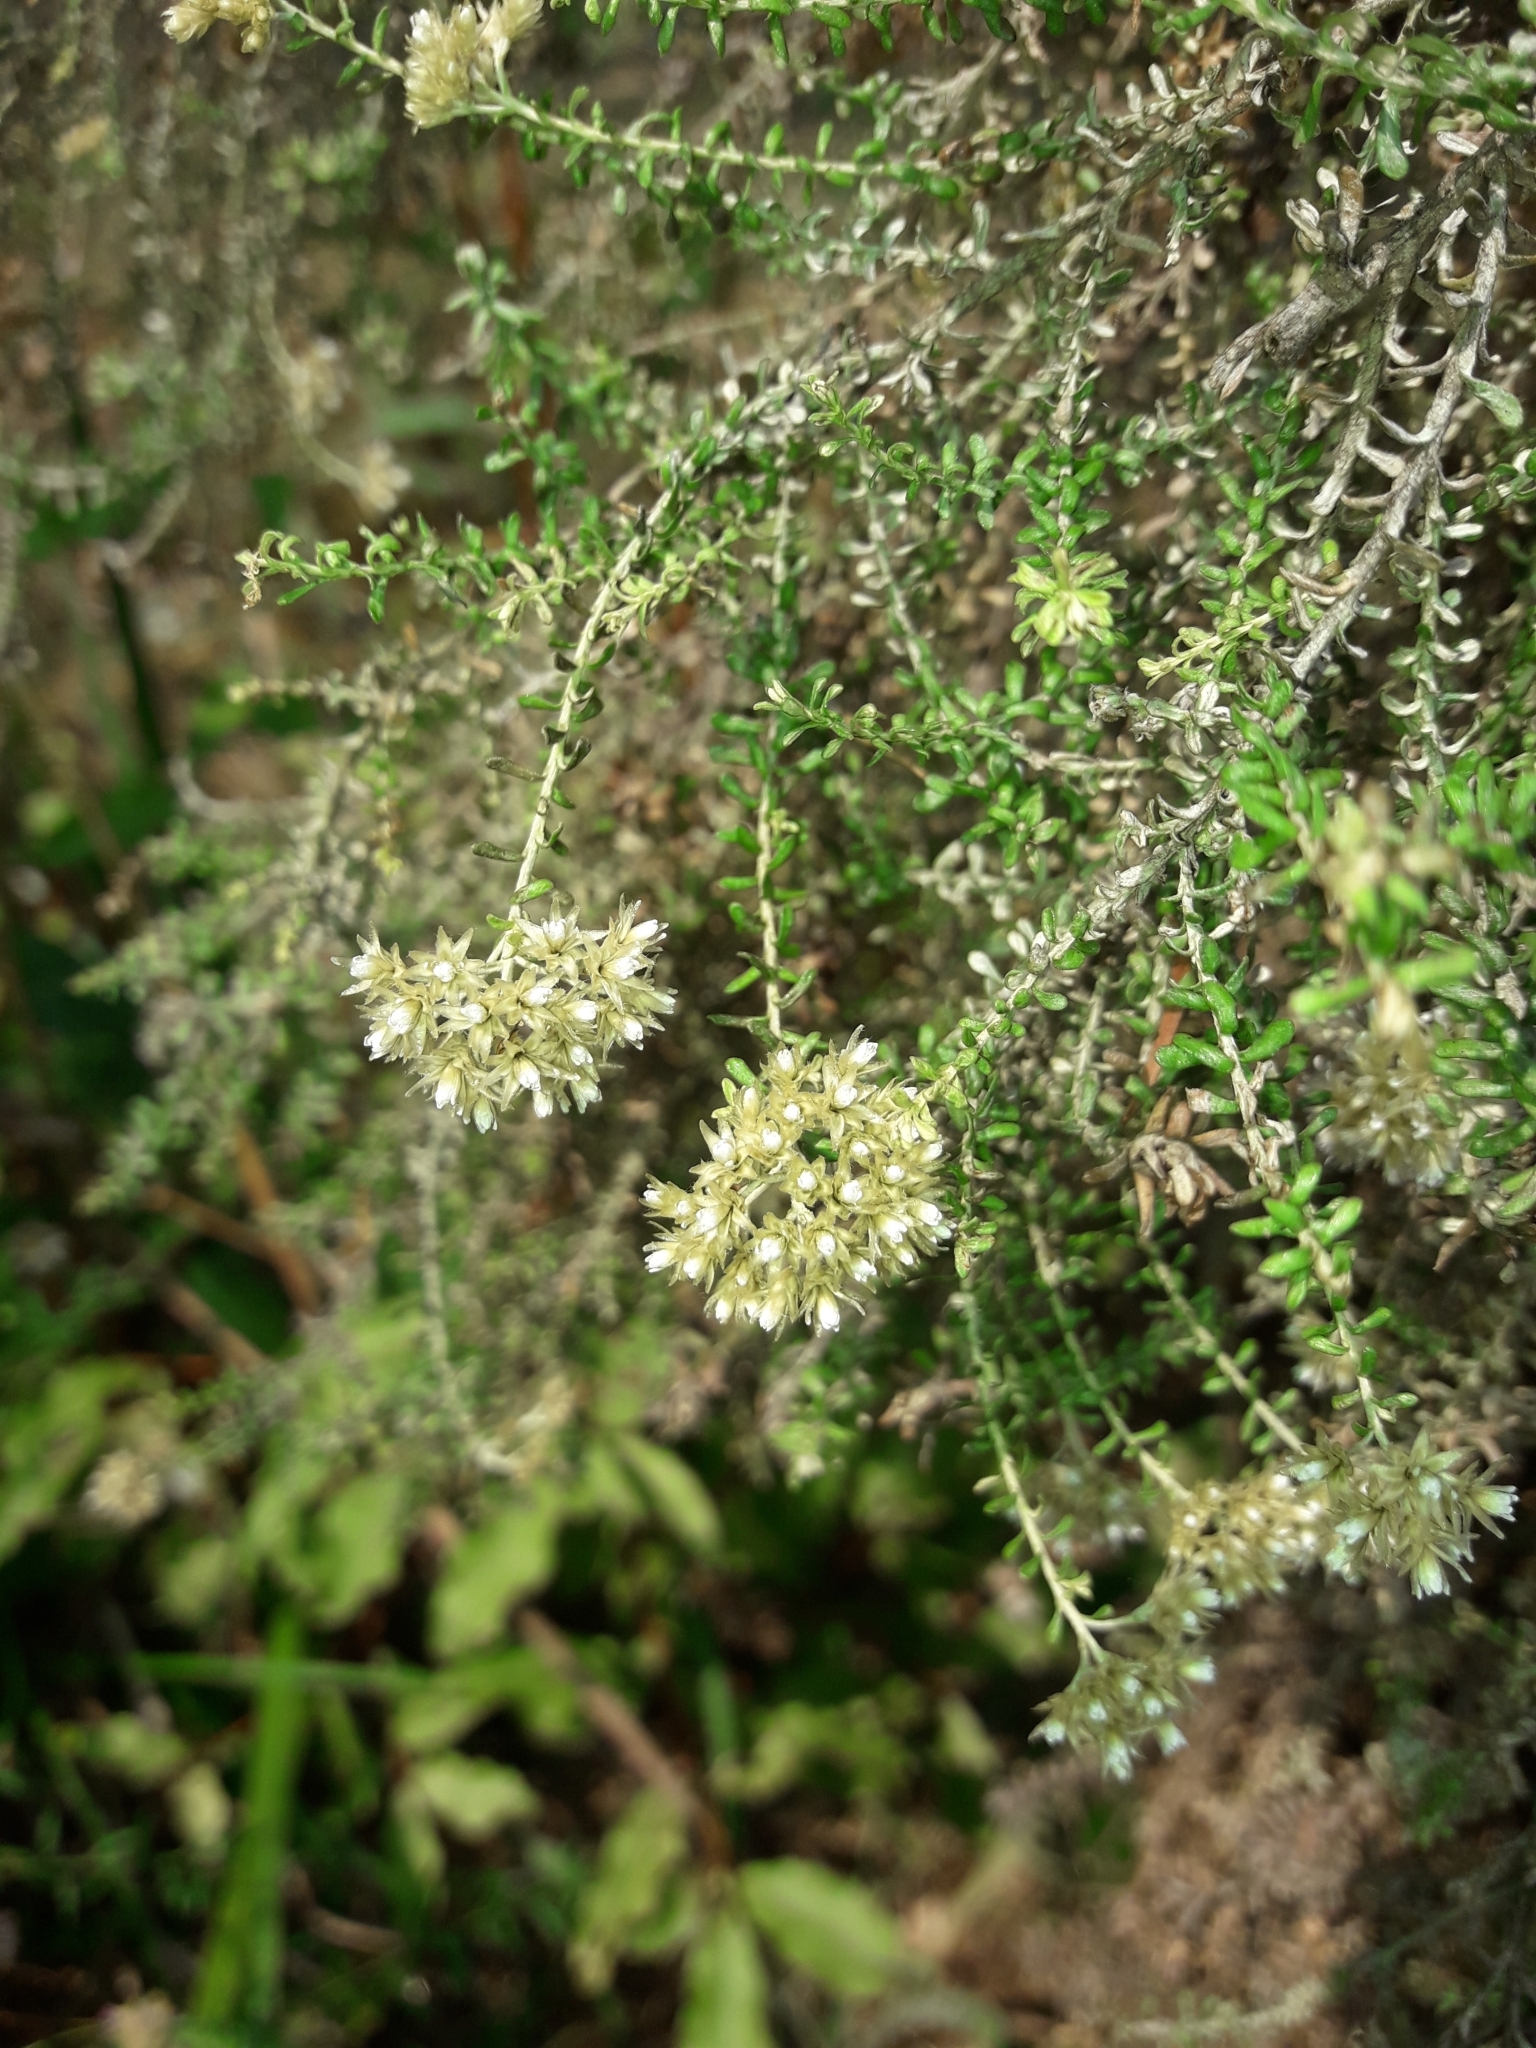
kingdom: Plantae
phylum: Tracheophyta
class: Magnoliopsida
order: Asterales
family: Asteraceae
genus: Ozothamnus
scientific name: Ozothamnus leptophyllus
